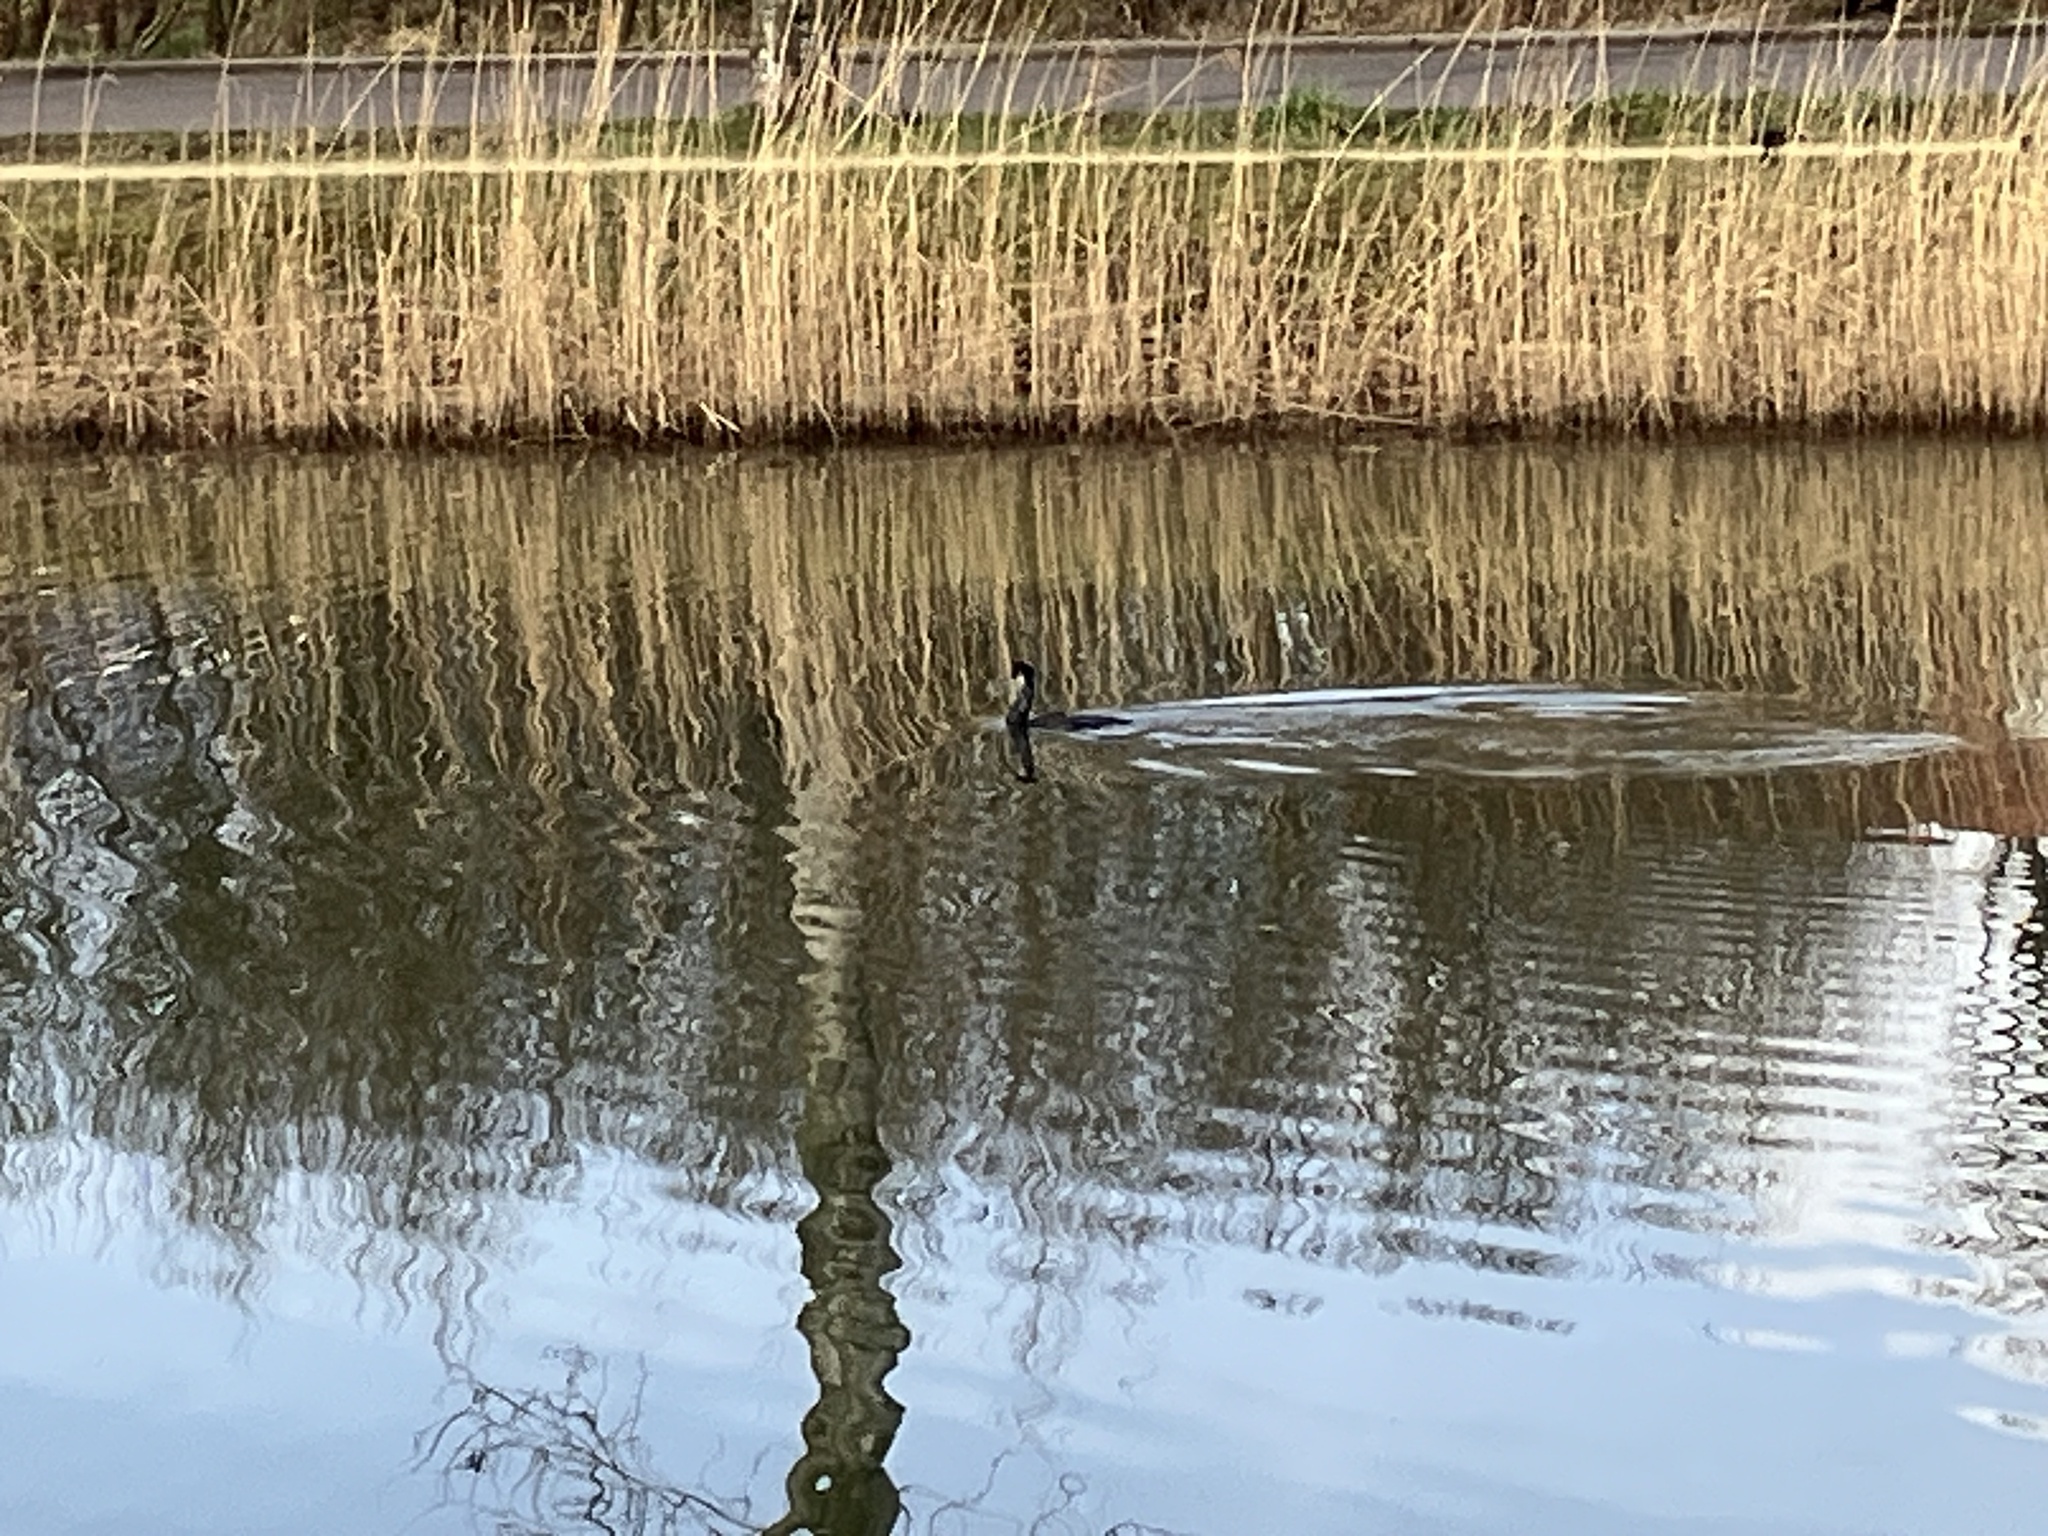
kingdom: Animalia
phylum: Chordata
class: Aves
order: Suliformes
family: Phalacrocoracidae
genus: Phalacrocorax
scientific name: Phalacrocorax carbo
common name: Great cormorant
